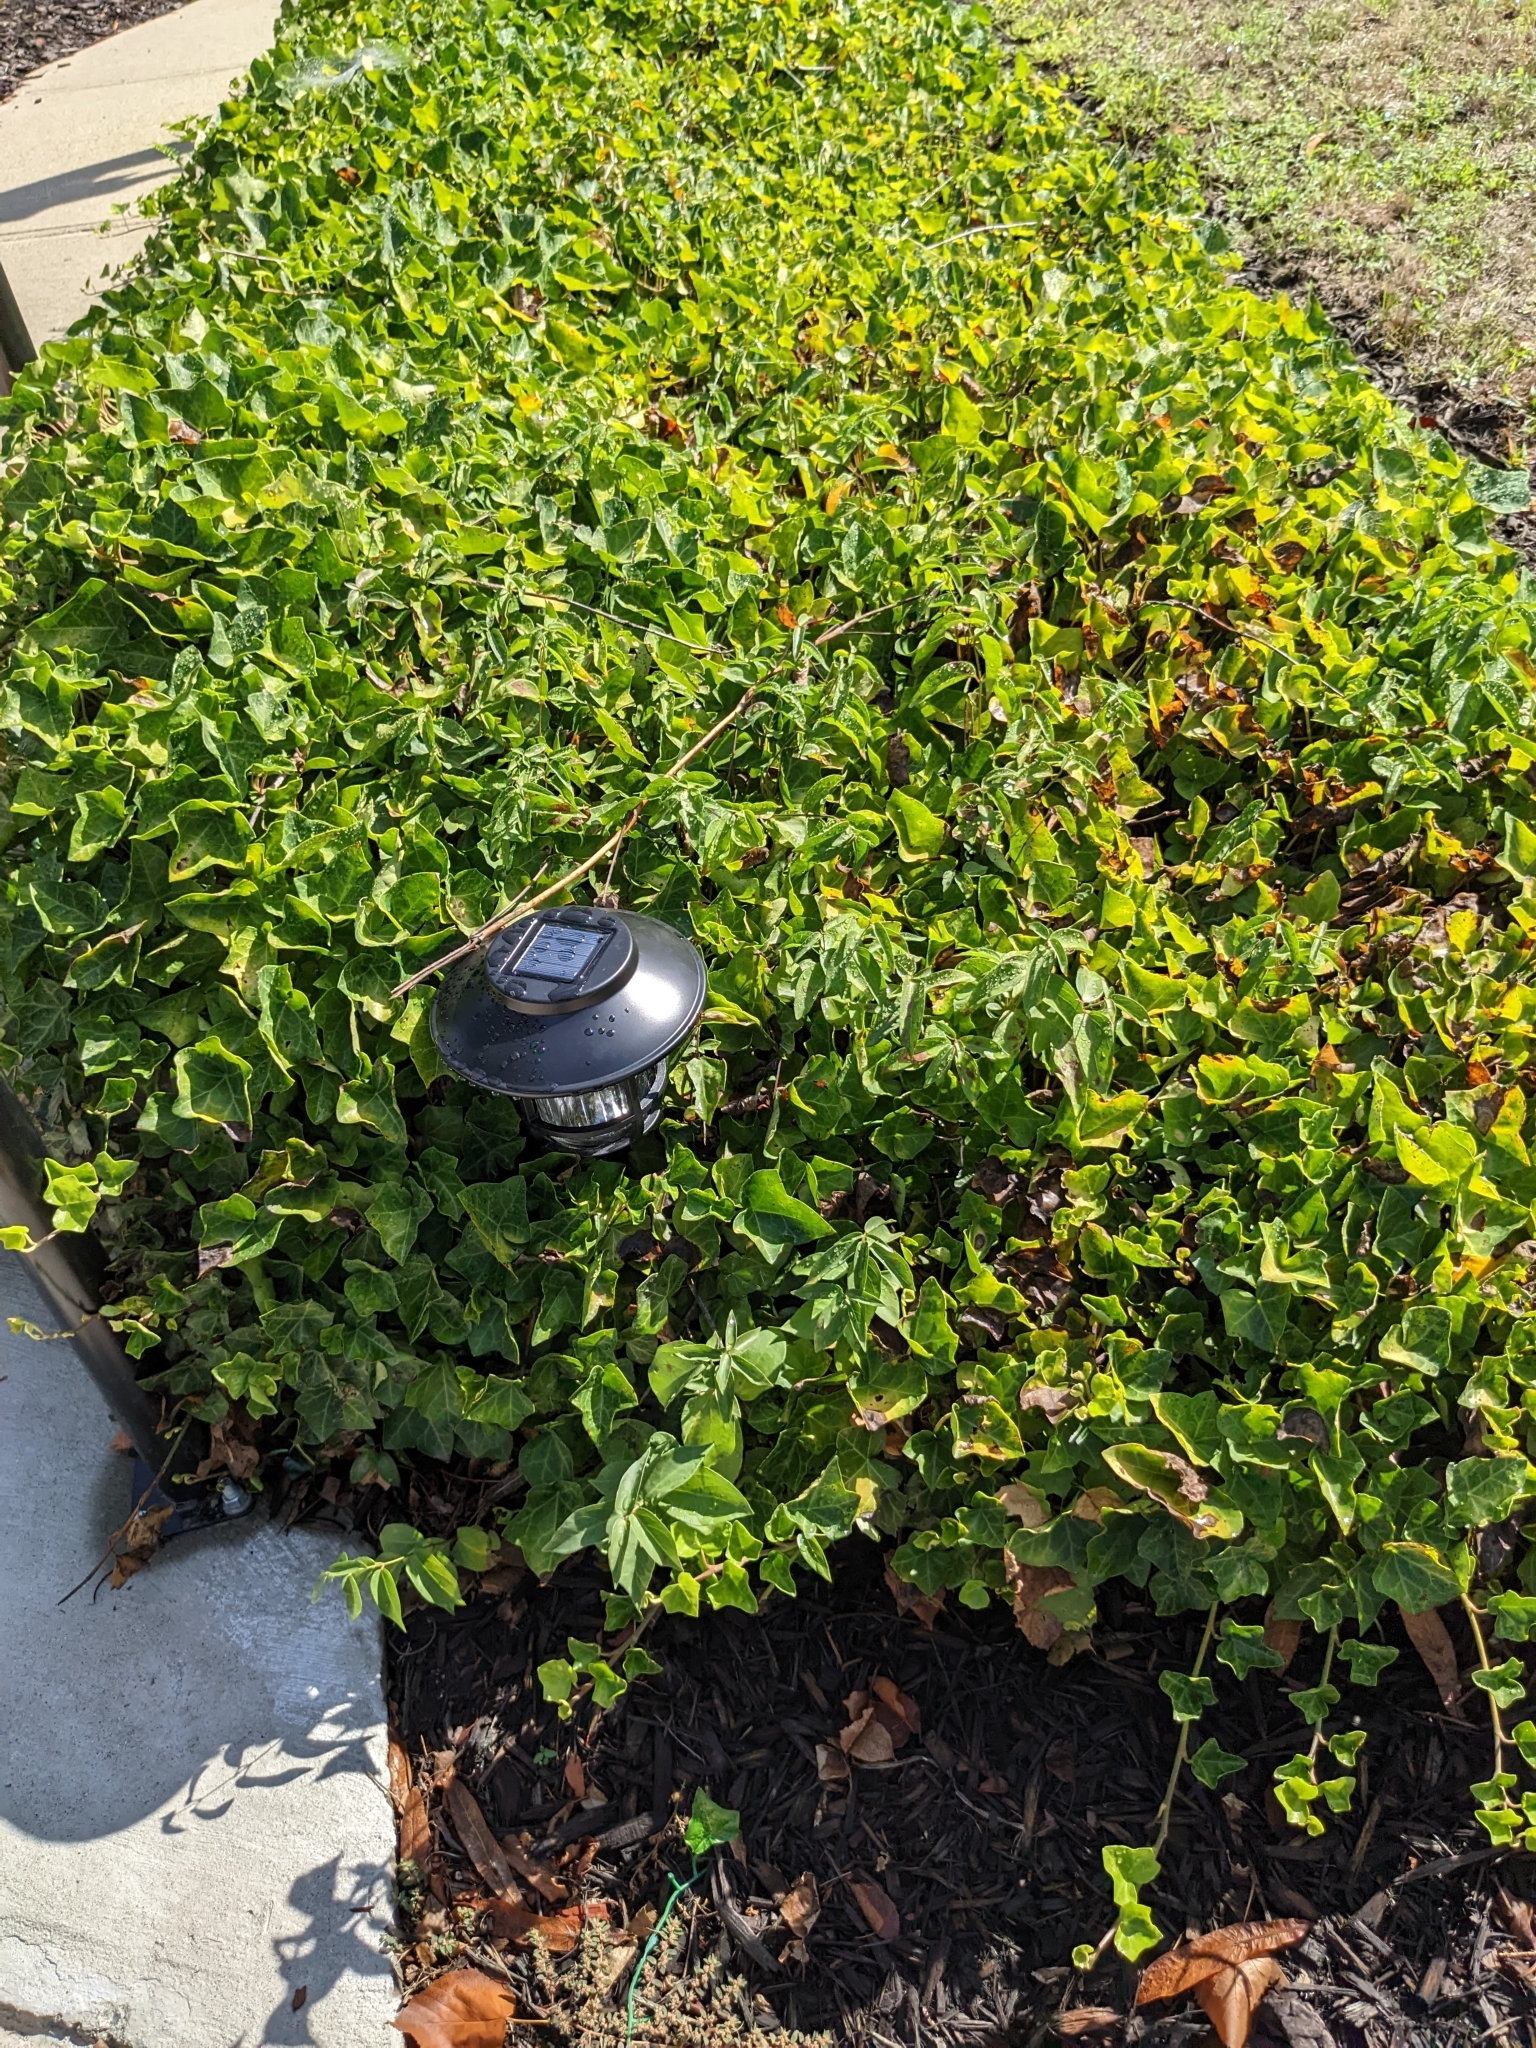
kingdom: Plantae
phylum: Tracheophyta
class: Magnoliopsida
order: Gentianales
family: Apocynaceae
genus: Vincetoxicum
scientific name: Vincetoxicum nigrum
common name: Black swallow-wort
